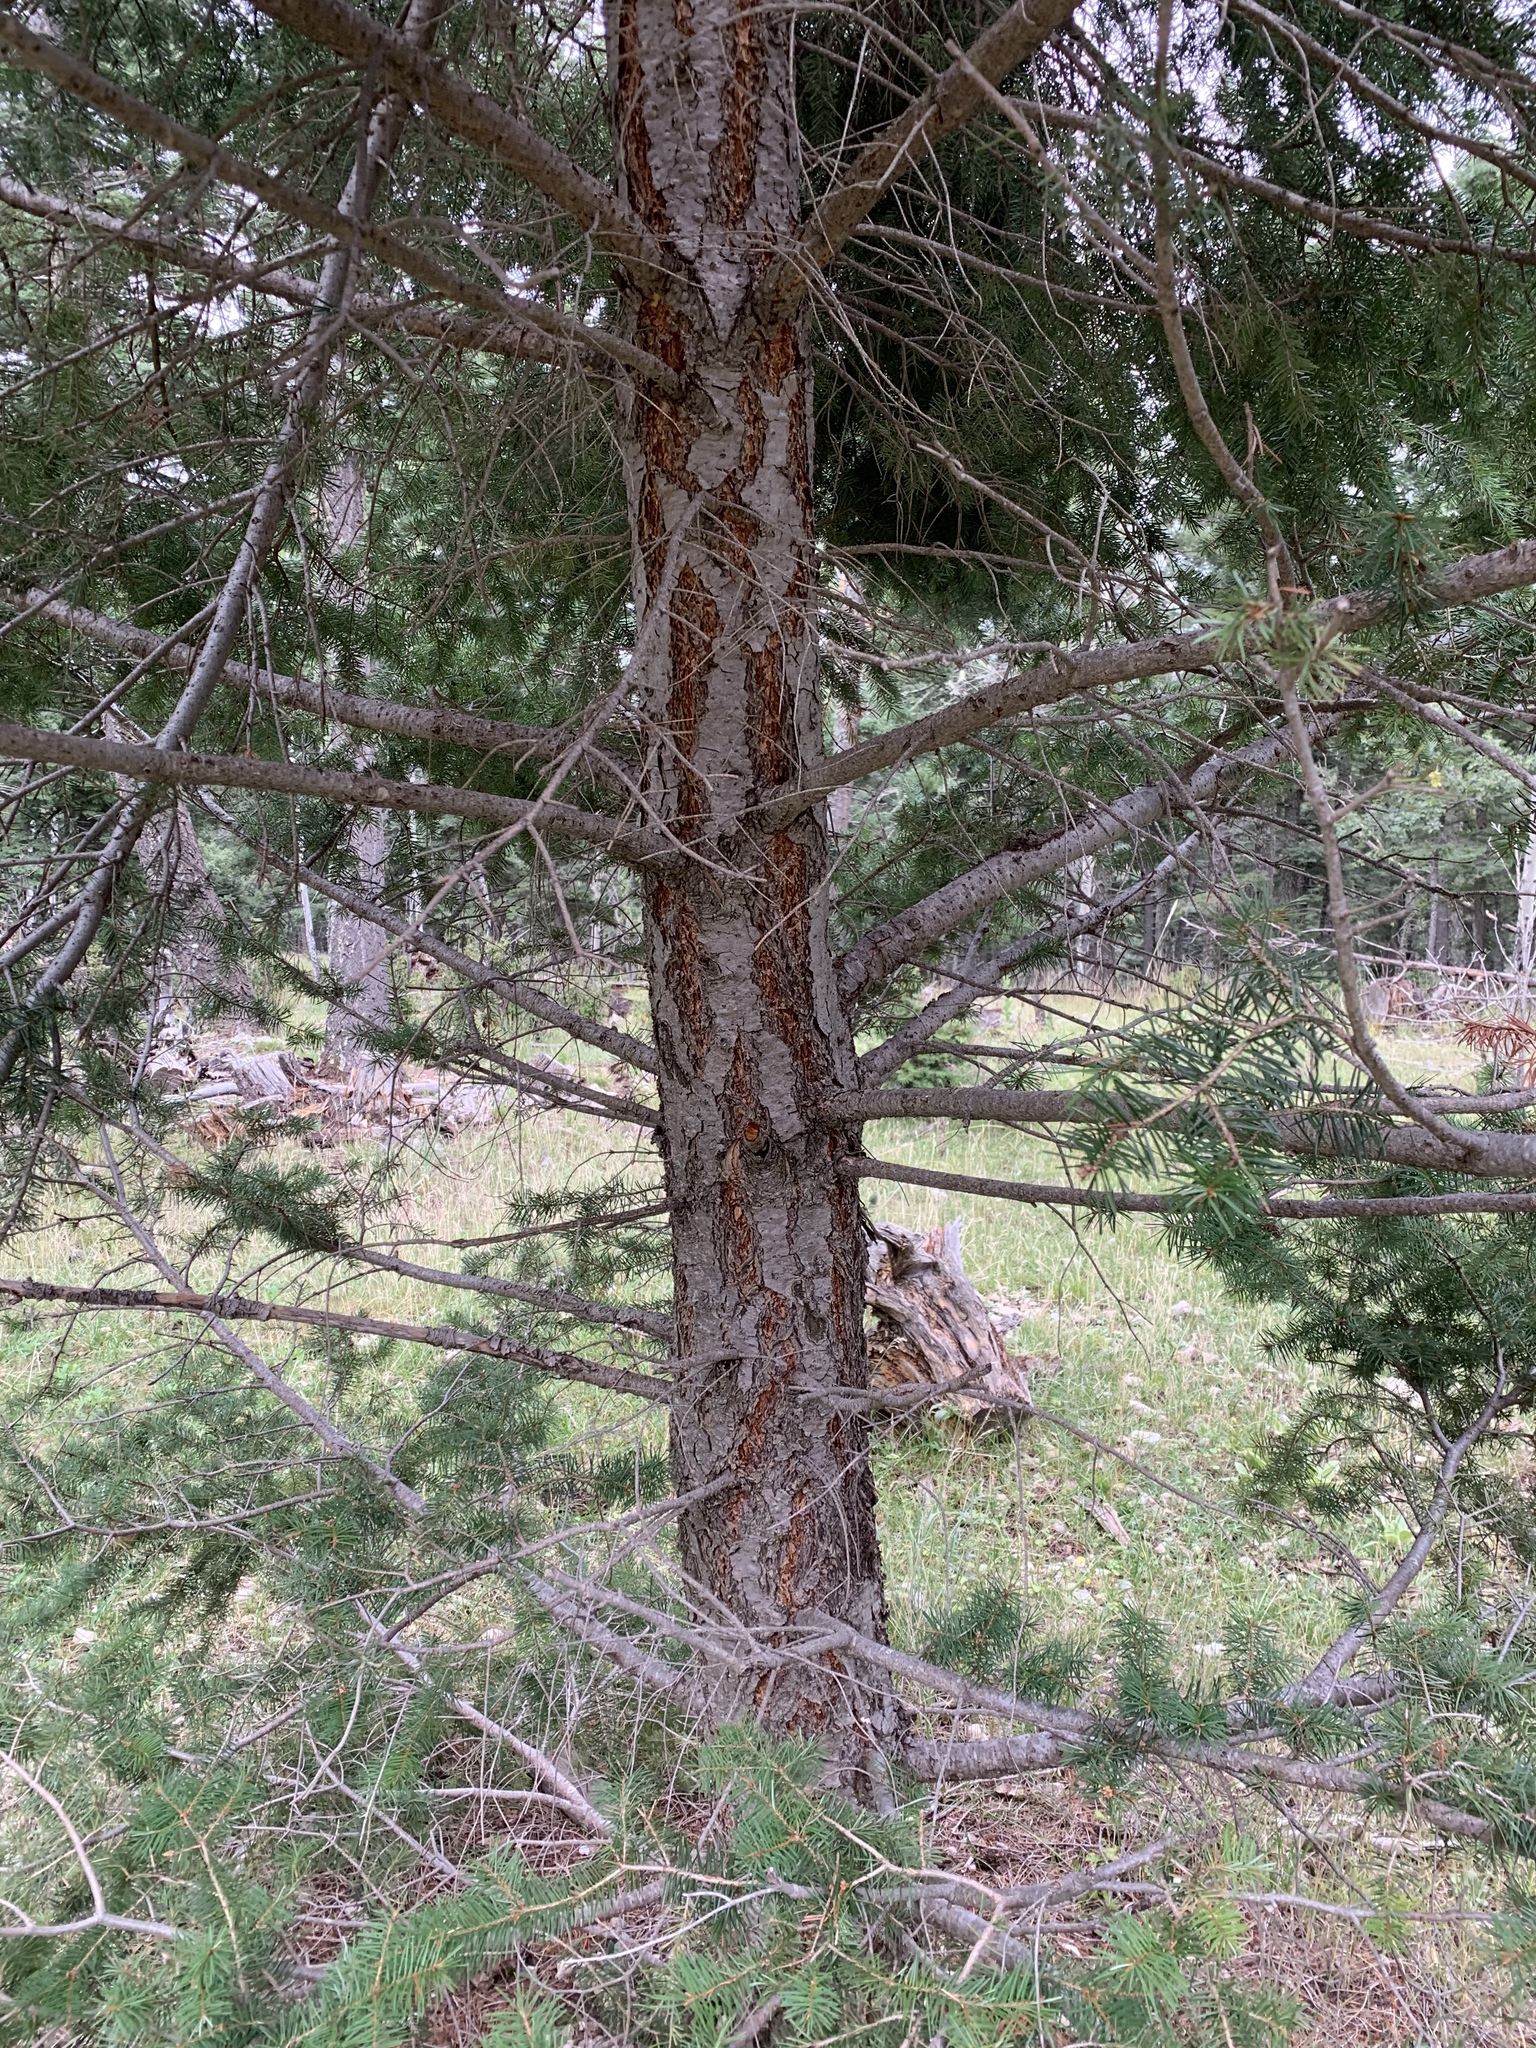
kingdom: Plantae
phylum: Tracheophyta
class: Pinopsida
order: Pinales
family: Pinaceae
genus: Picea
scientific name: Picea engelmannii
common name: Engelmann spruce
